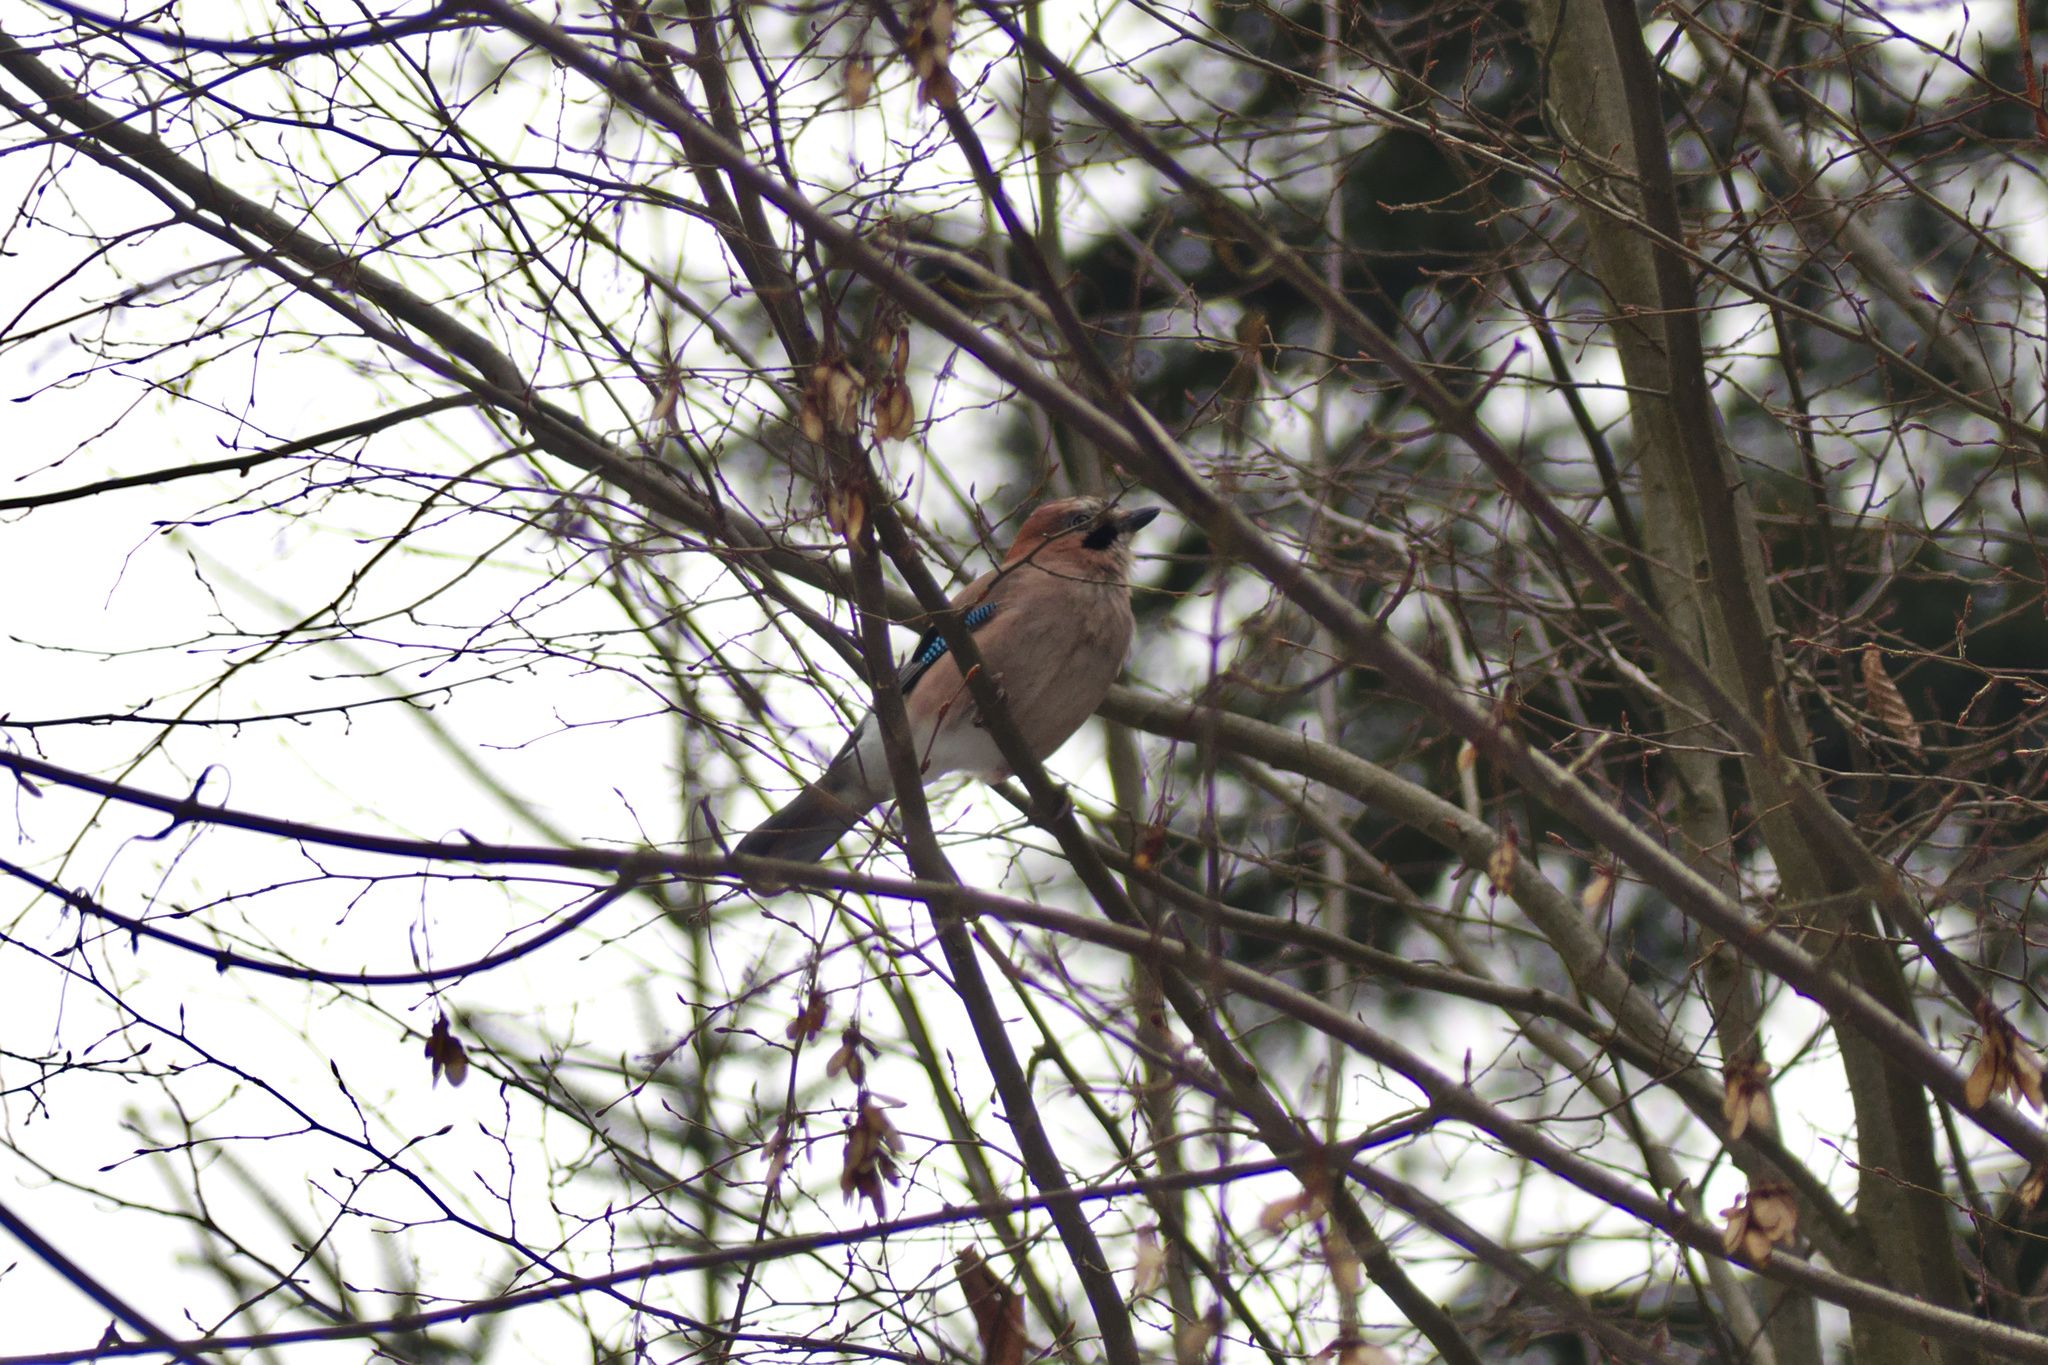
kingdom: Animalia
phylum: Chordata
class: Aves
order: Passeriformes
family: Corvidae
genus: Garrulus
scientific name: Garrulus glandarius
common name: Eurasian jay
